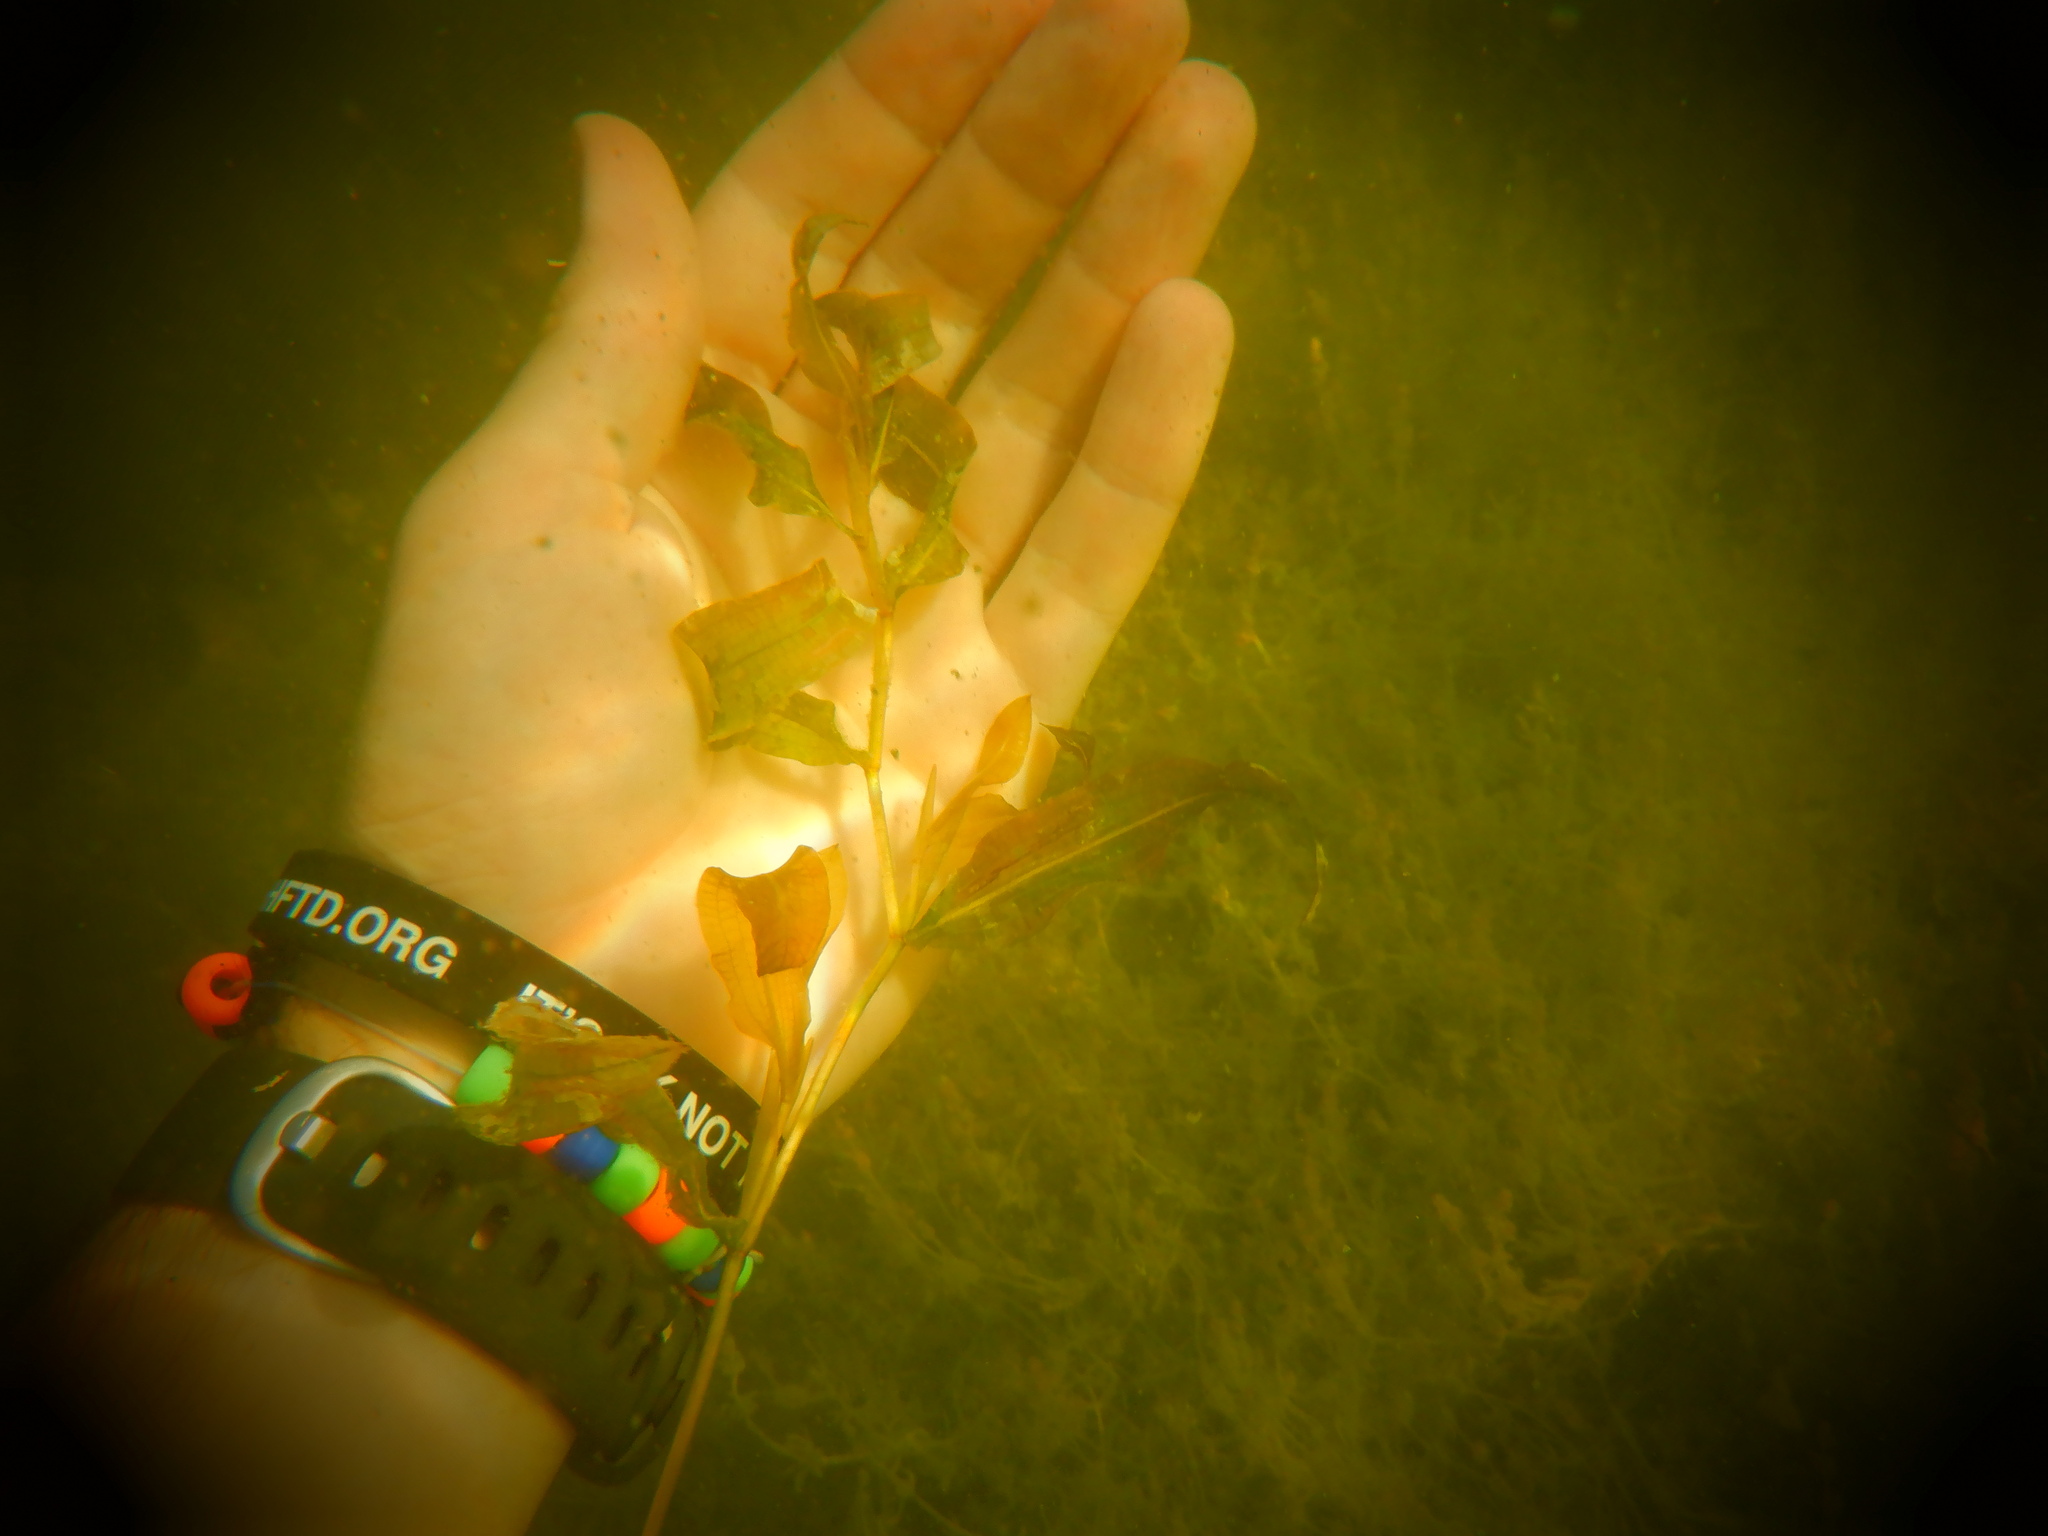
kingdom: Plantae
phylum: Tracheophyta
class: Liliopsida
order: Alismatales
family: Potamogetonaceae
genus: Potamogeton
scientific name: Potamogeton illinoensis
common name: Illinois pondweed
